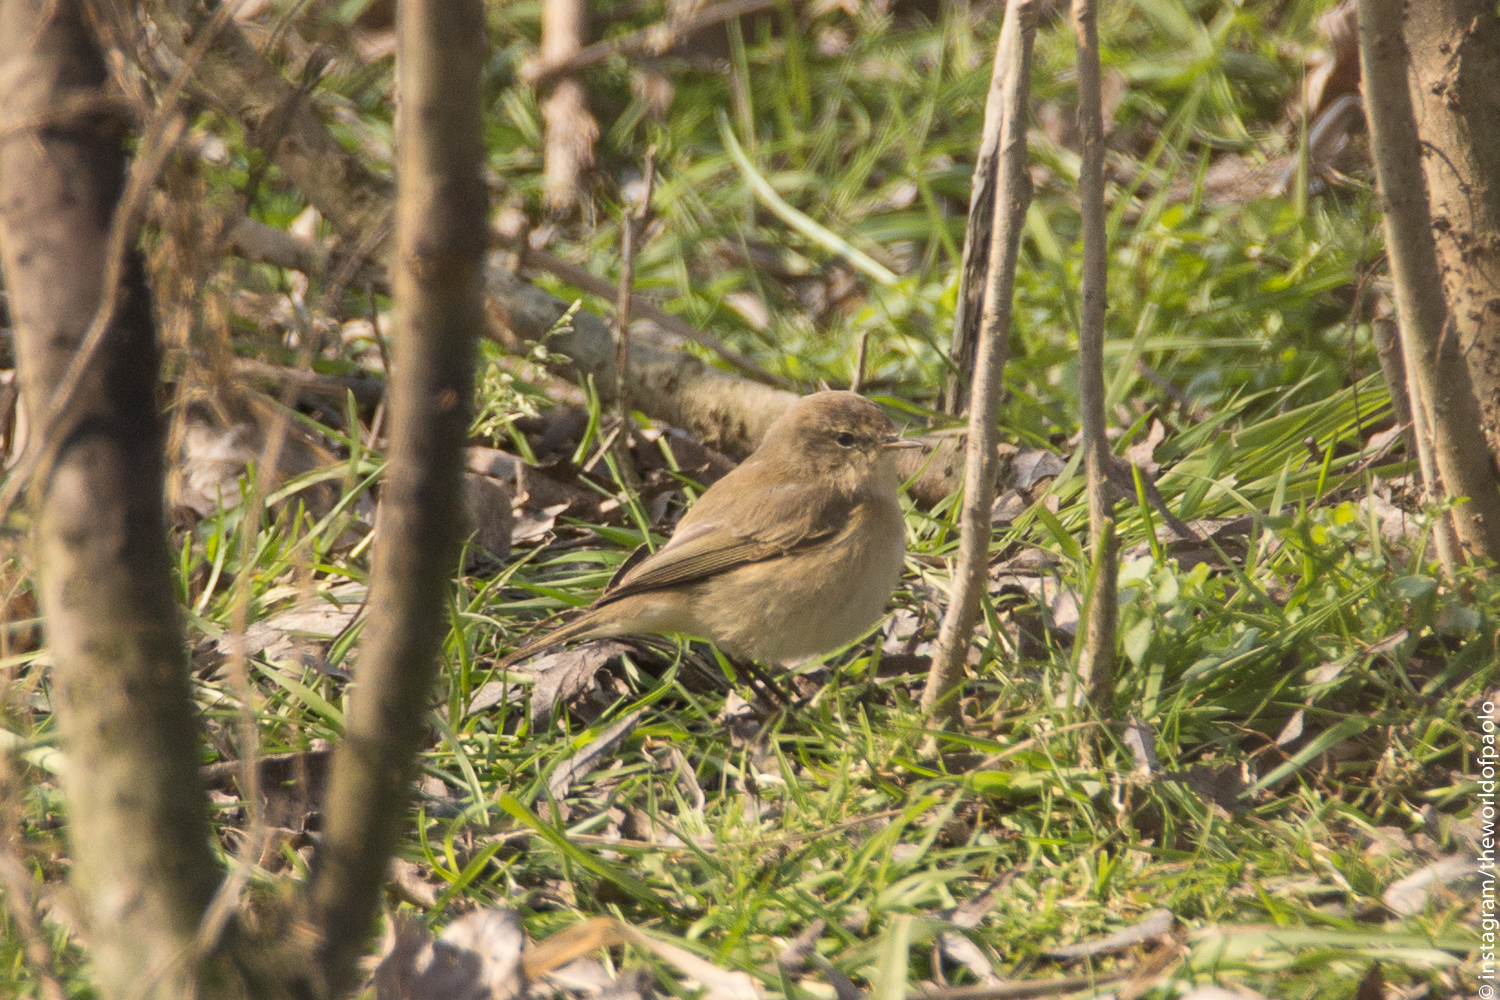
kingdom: Animalia
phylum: Chordata
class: Aves
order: Passeriformes
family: Phylloscopidae
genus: Phylloscopus
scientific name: Phylloscopus collybita
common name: Common chiffchaff
